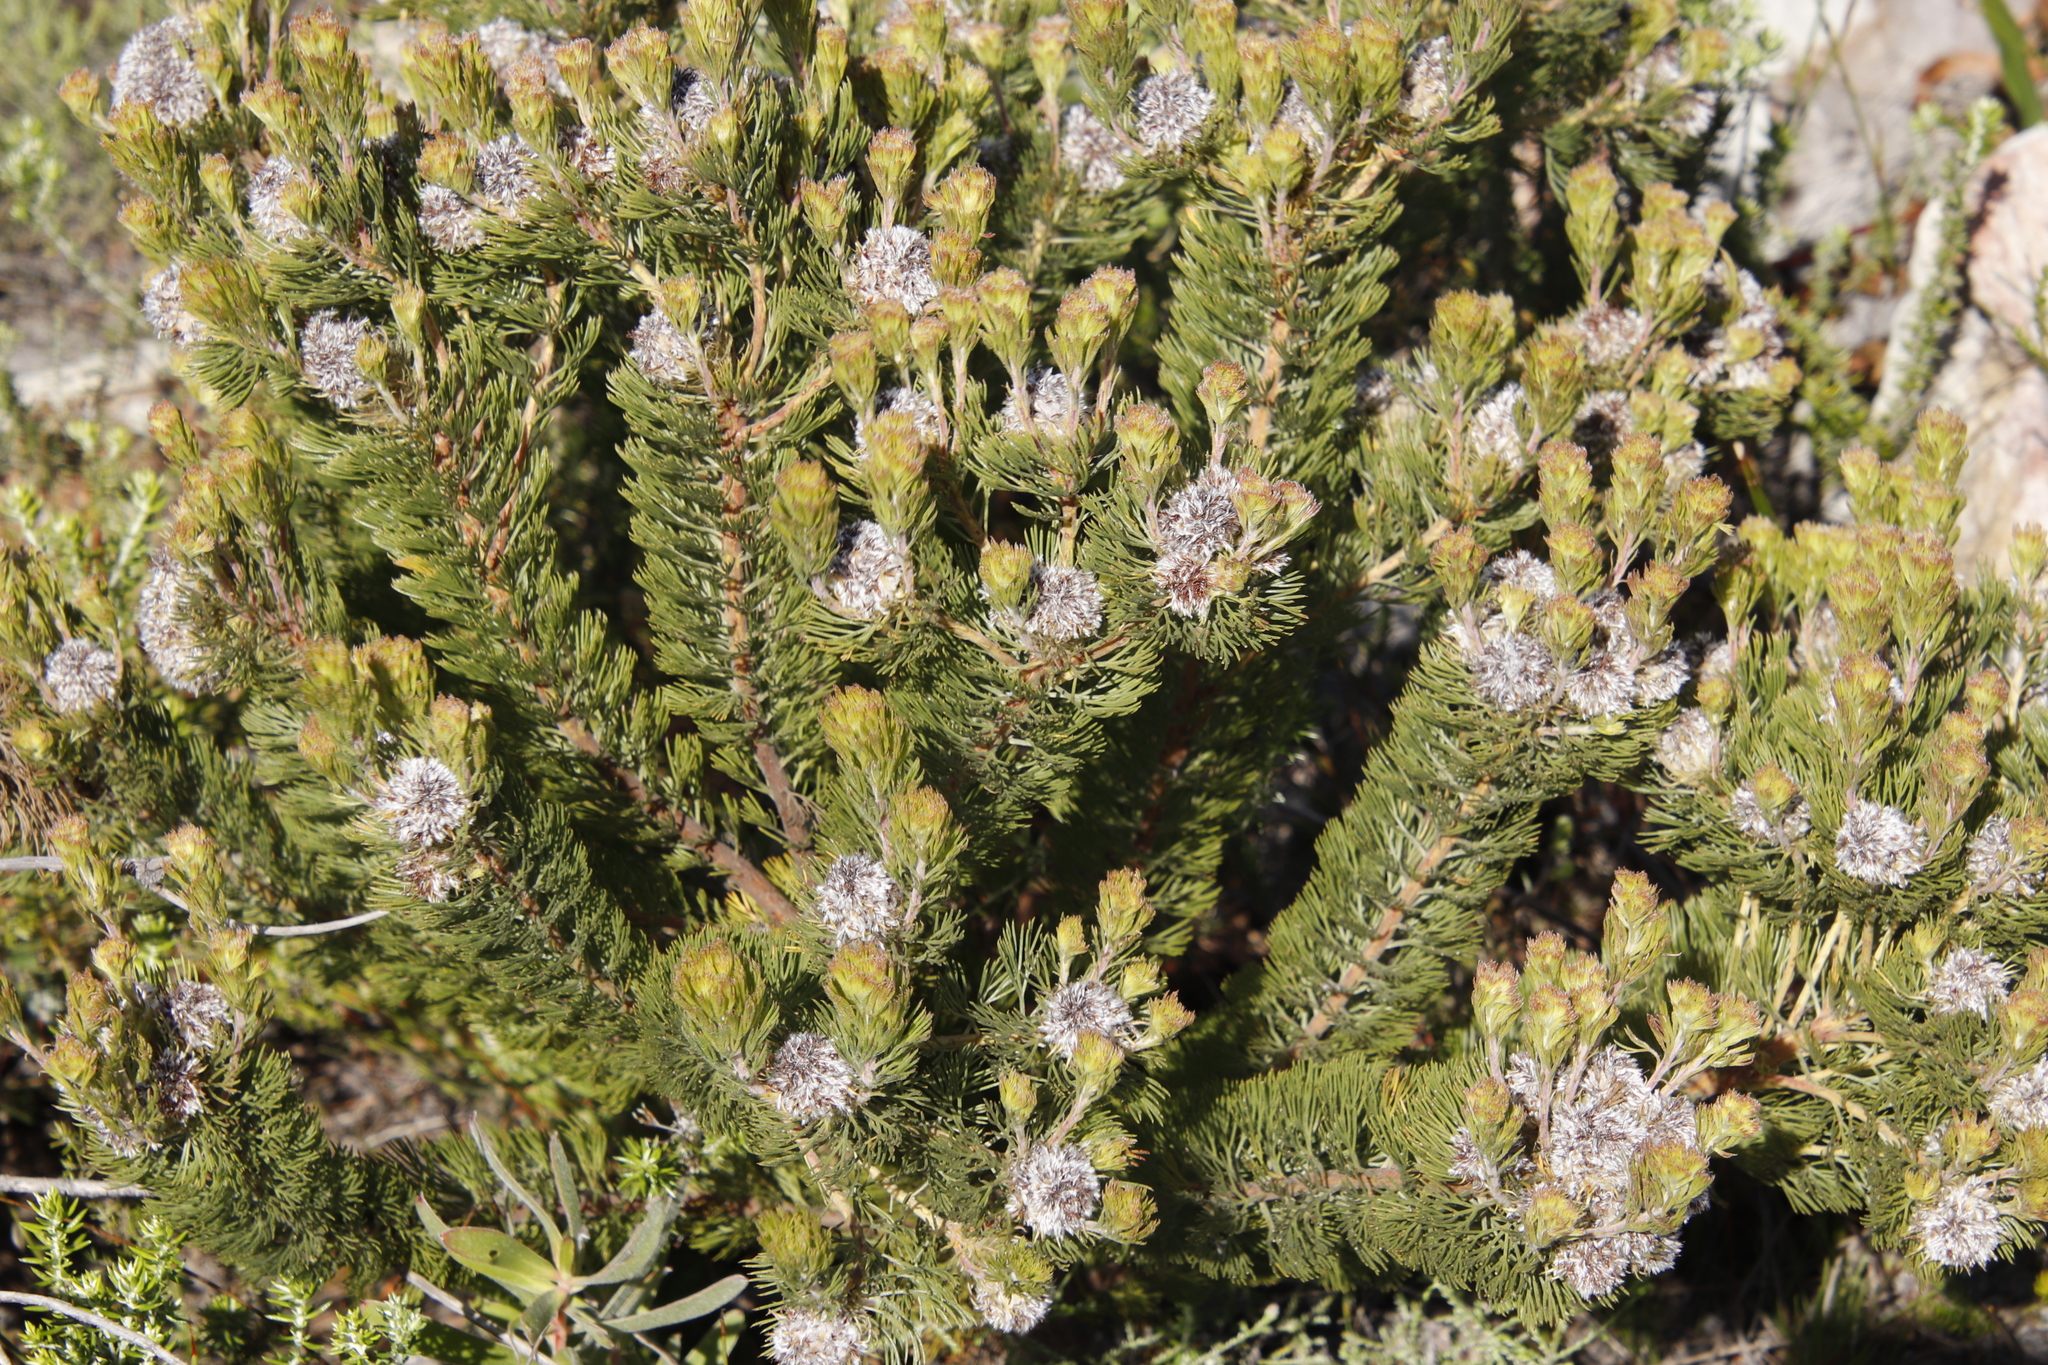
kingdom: Plantae
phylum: Tracheophyta
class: Magnoliopsida
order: Proteales
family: Proteaceae
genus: Serruria
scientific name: Serruria villosa
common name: Golden spiderhead
